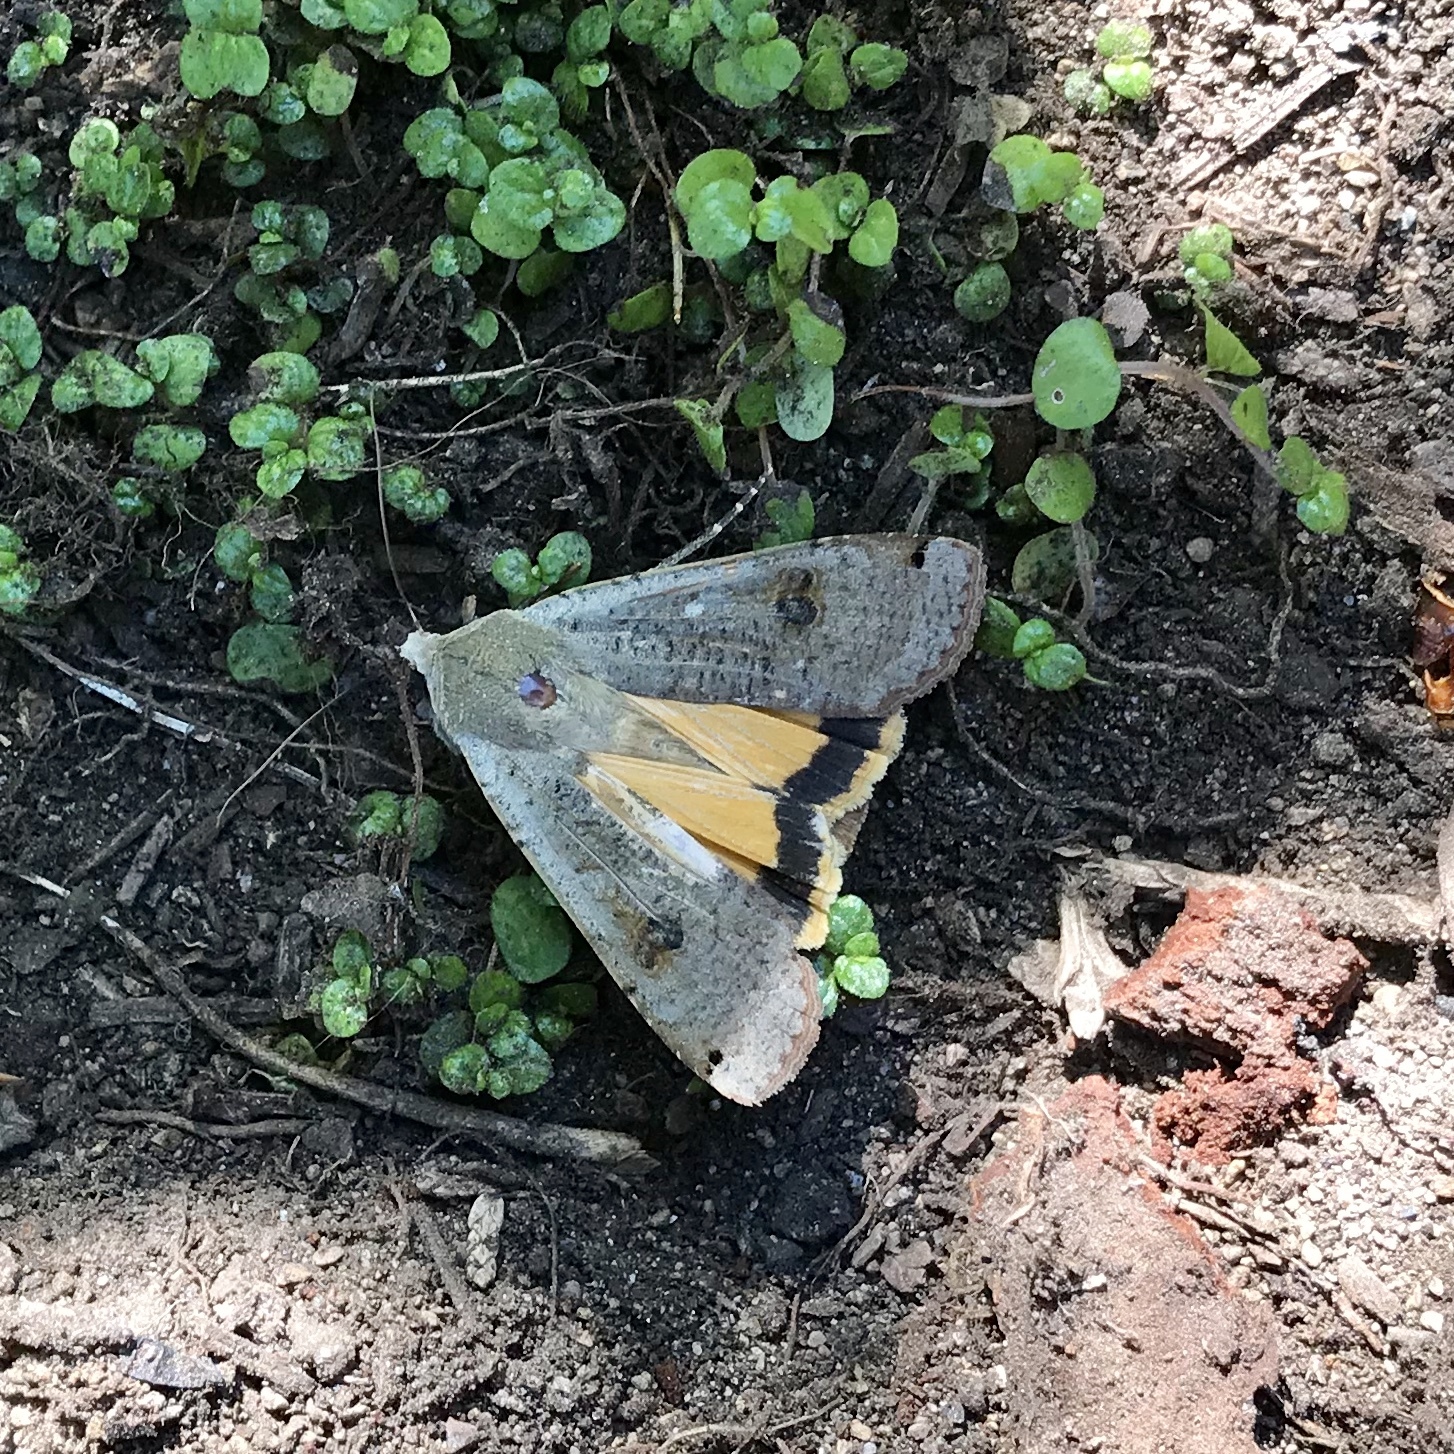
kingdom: Animalia
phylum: Arthropoda
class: Insecta
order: Lepidoptera
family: Noctuidae
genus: Noctua
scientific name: Noctua pronuba
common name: Large yellow underwing
